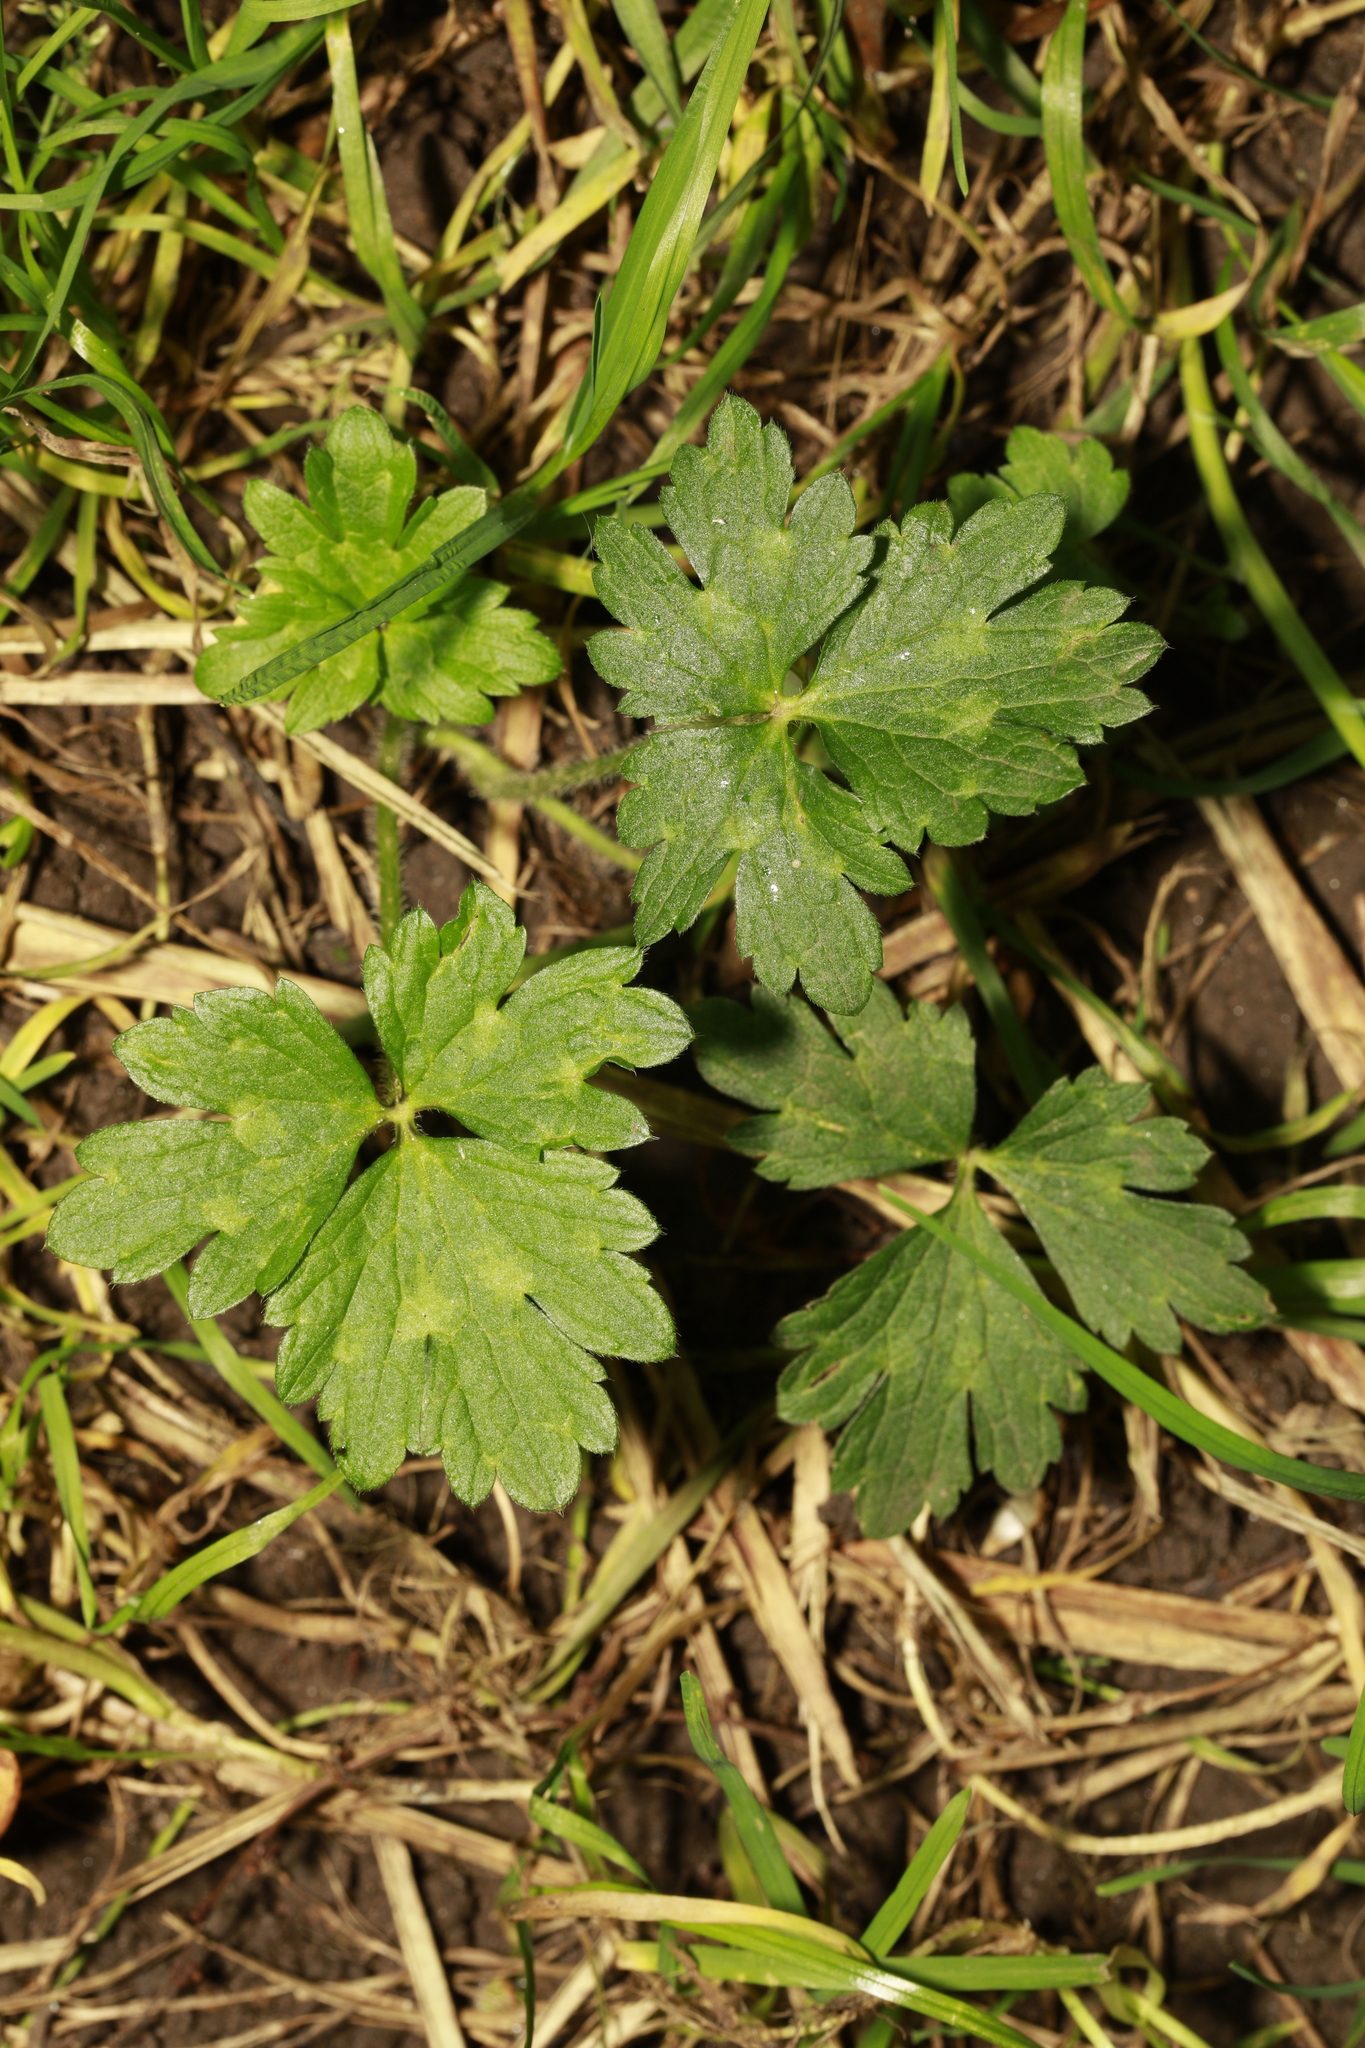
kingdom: Plantae
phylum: Tracheophyta
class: Magnoliopsida
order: Ranunculales
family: Ranunculaceae
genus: Ranunculus
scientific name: Ranunculus repens
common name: Creeping buttercup
